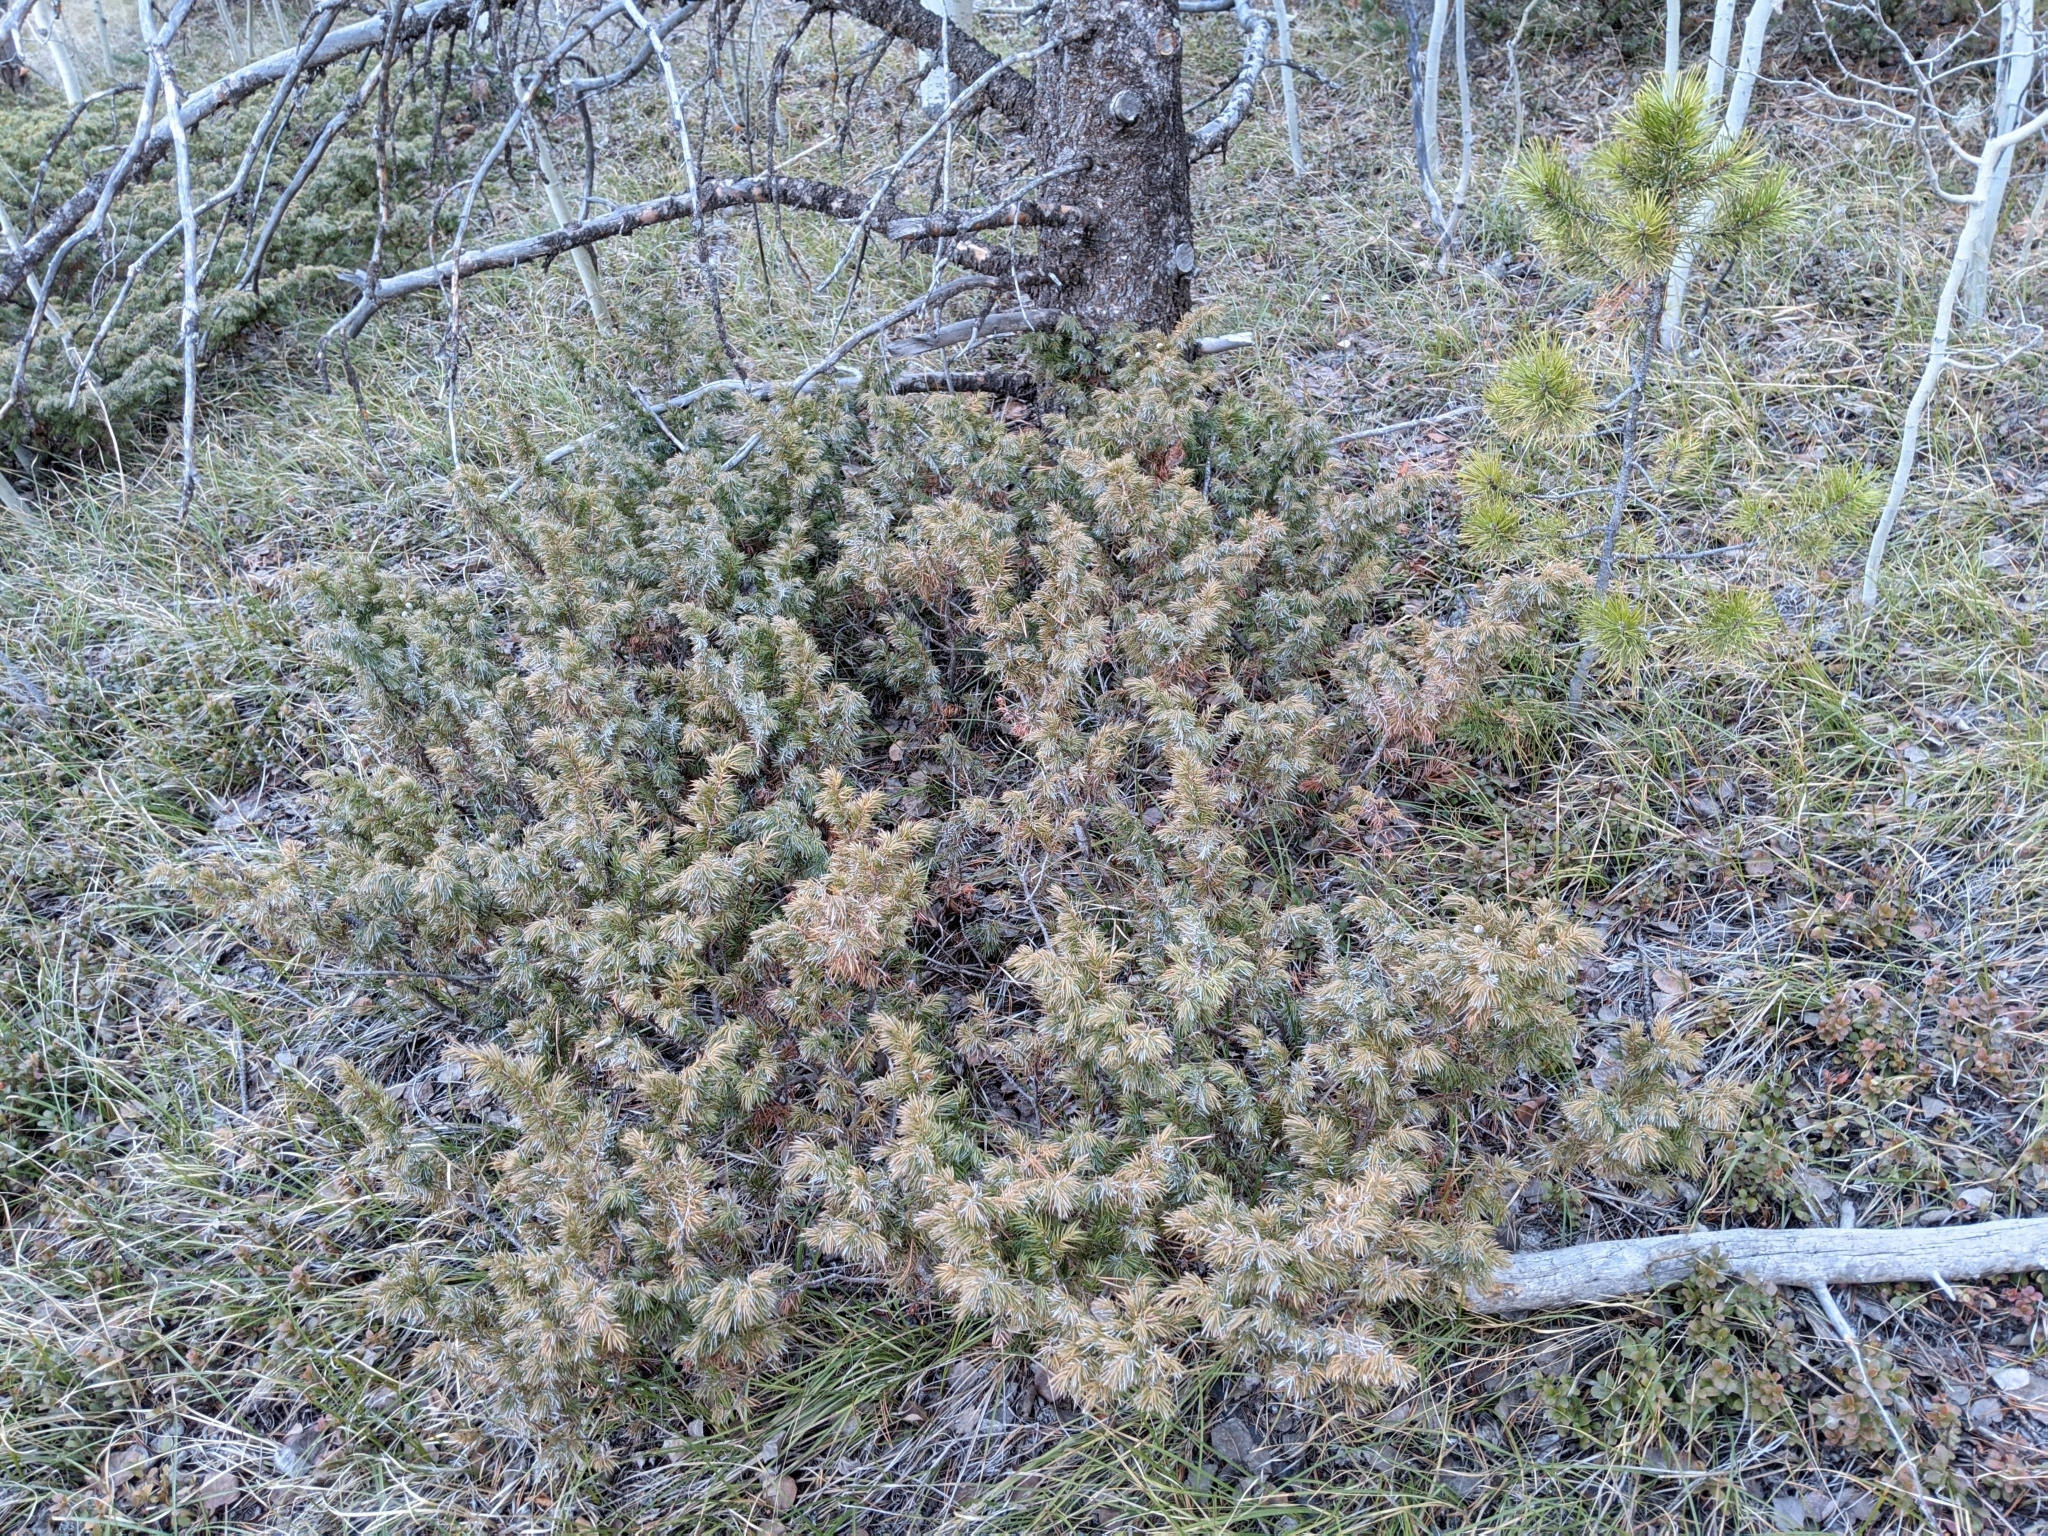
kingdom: Plantae
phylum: Tracheophyta
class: Pinopsida
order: Pinales
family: Cupressaceae
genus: Juniperus
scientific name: Juniperus communis
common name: Common juniper
